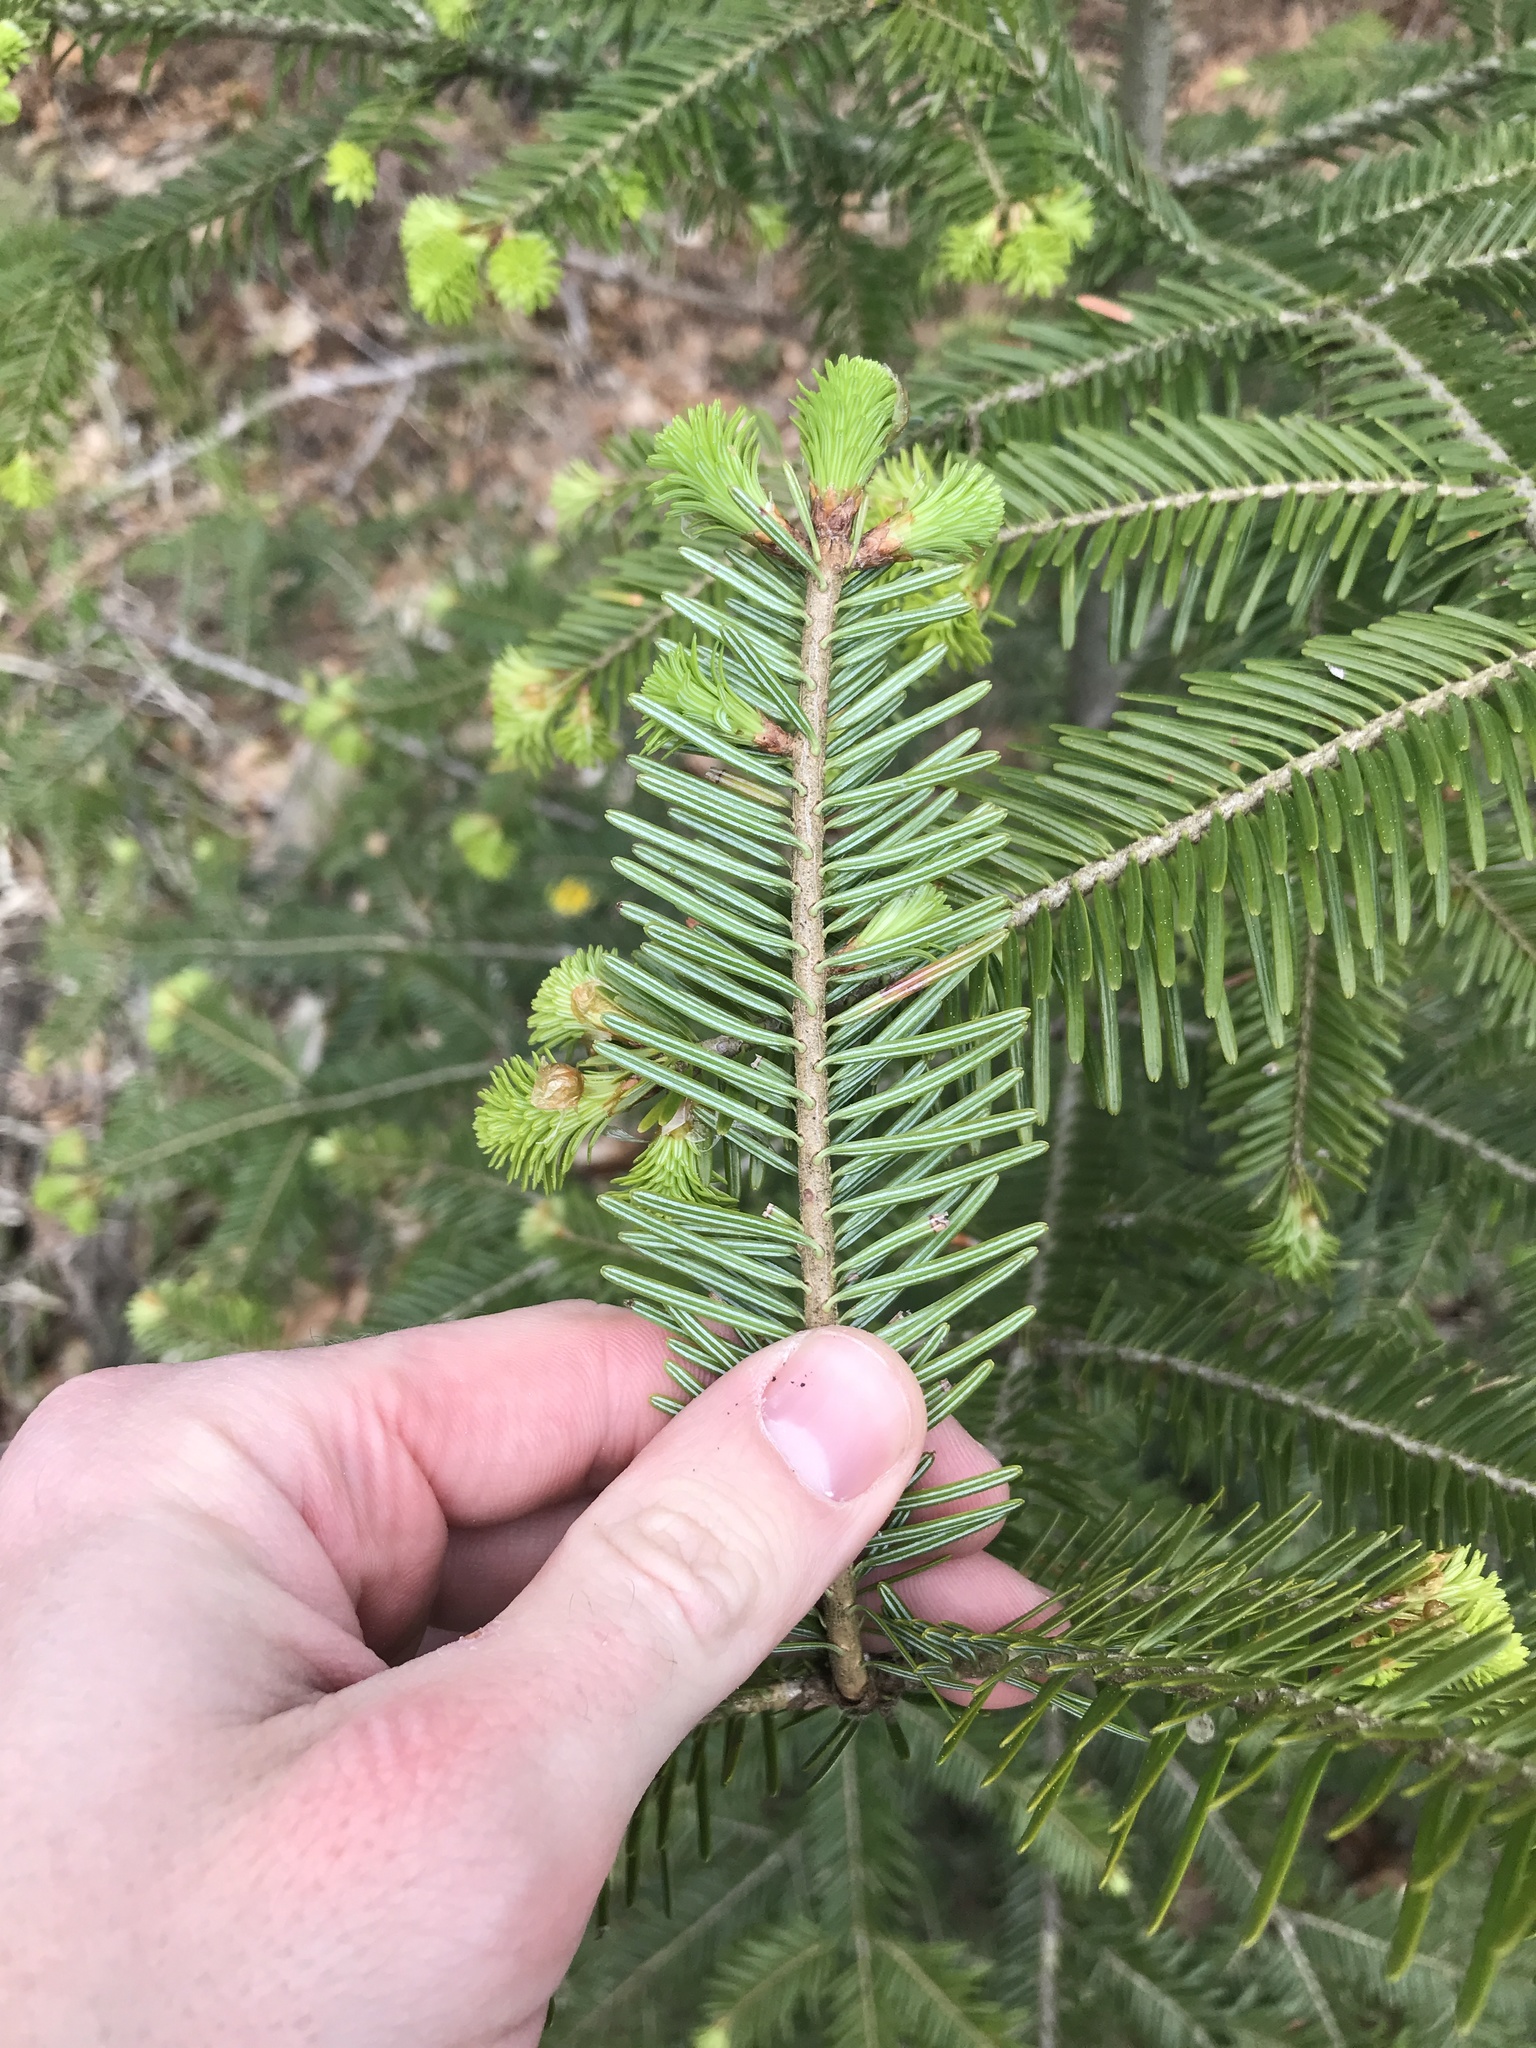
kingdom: Plantae
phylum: Tracheophyta
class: Pinopsida
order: Pinales
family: Pinaceae
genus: Abies
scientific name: Abies alba
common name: Silver fir
